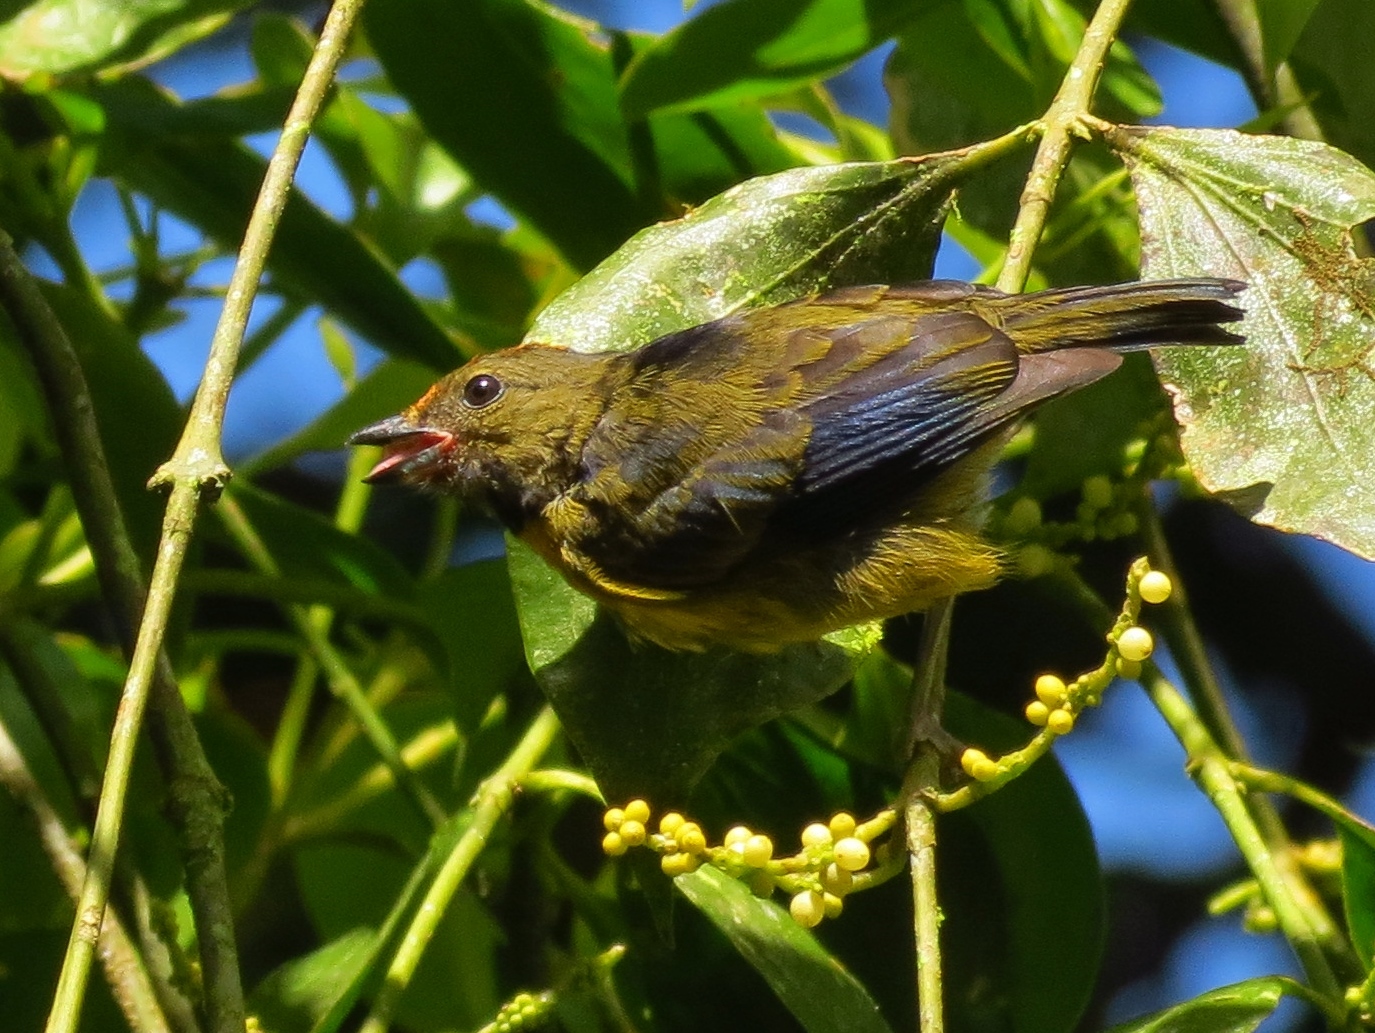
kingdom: Animalia
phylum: Chordata
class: Aves
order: Passeriformes
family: Fringillidae
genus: Euphonia
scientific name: Euphonia anneae
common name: Tawny-capped euphonia
